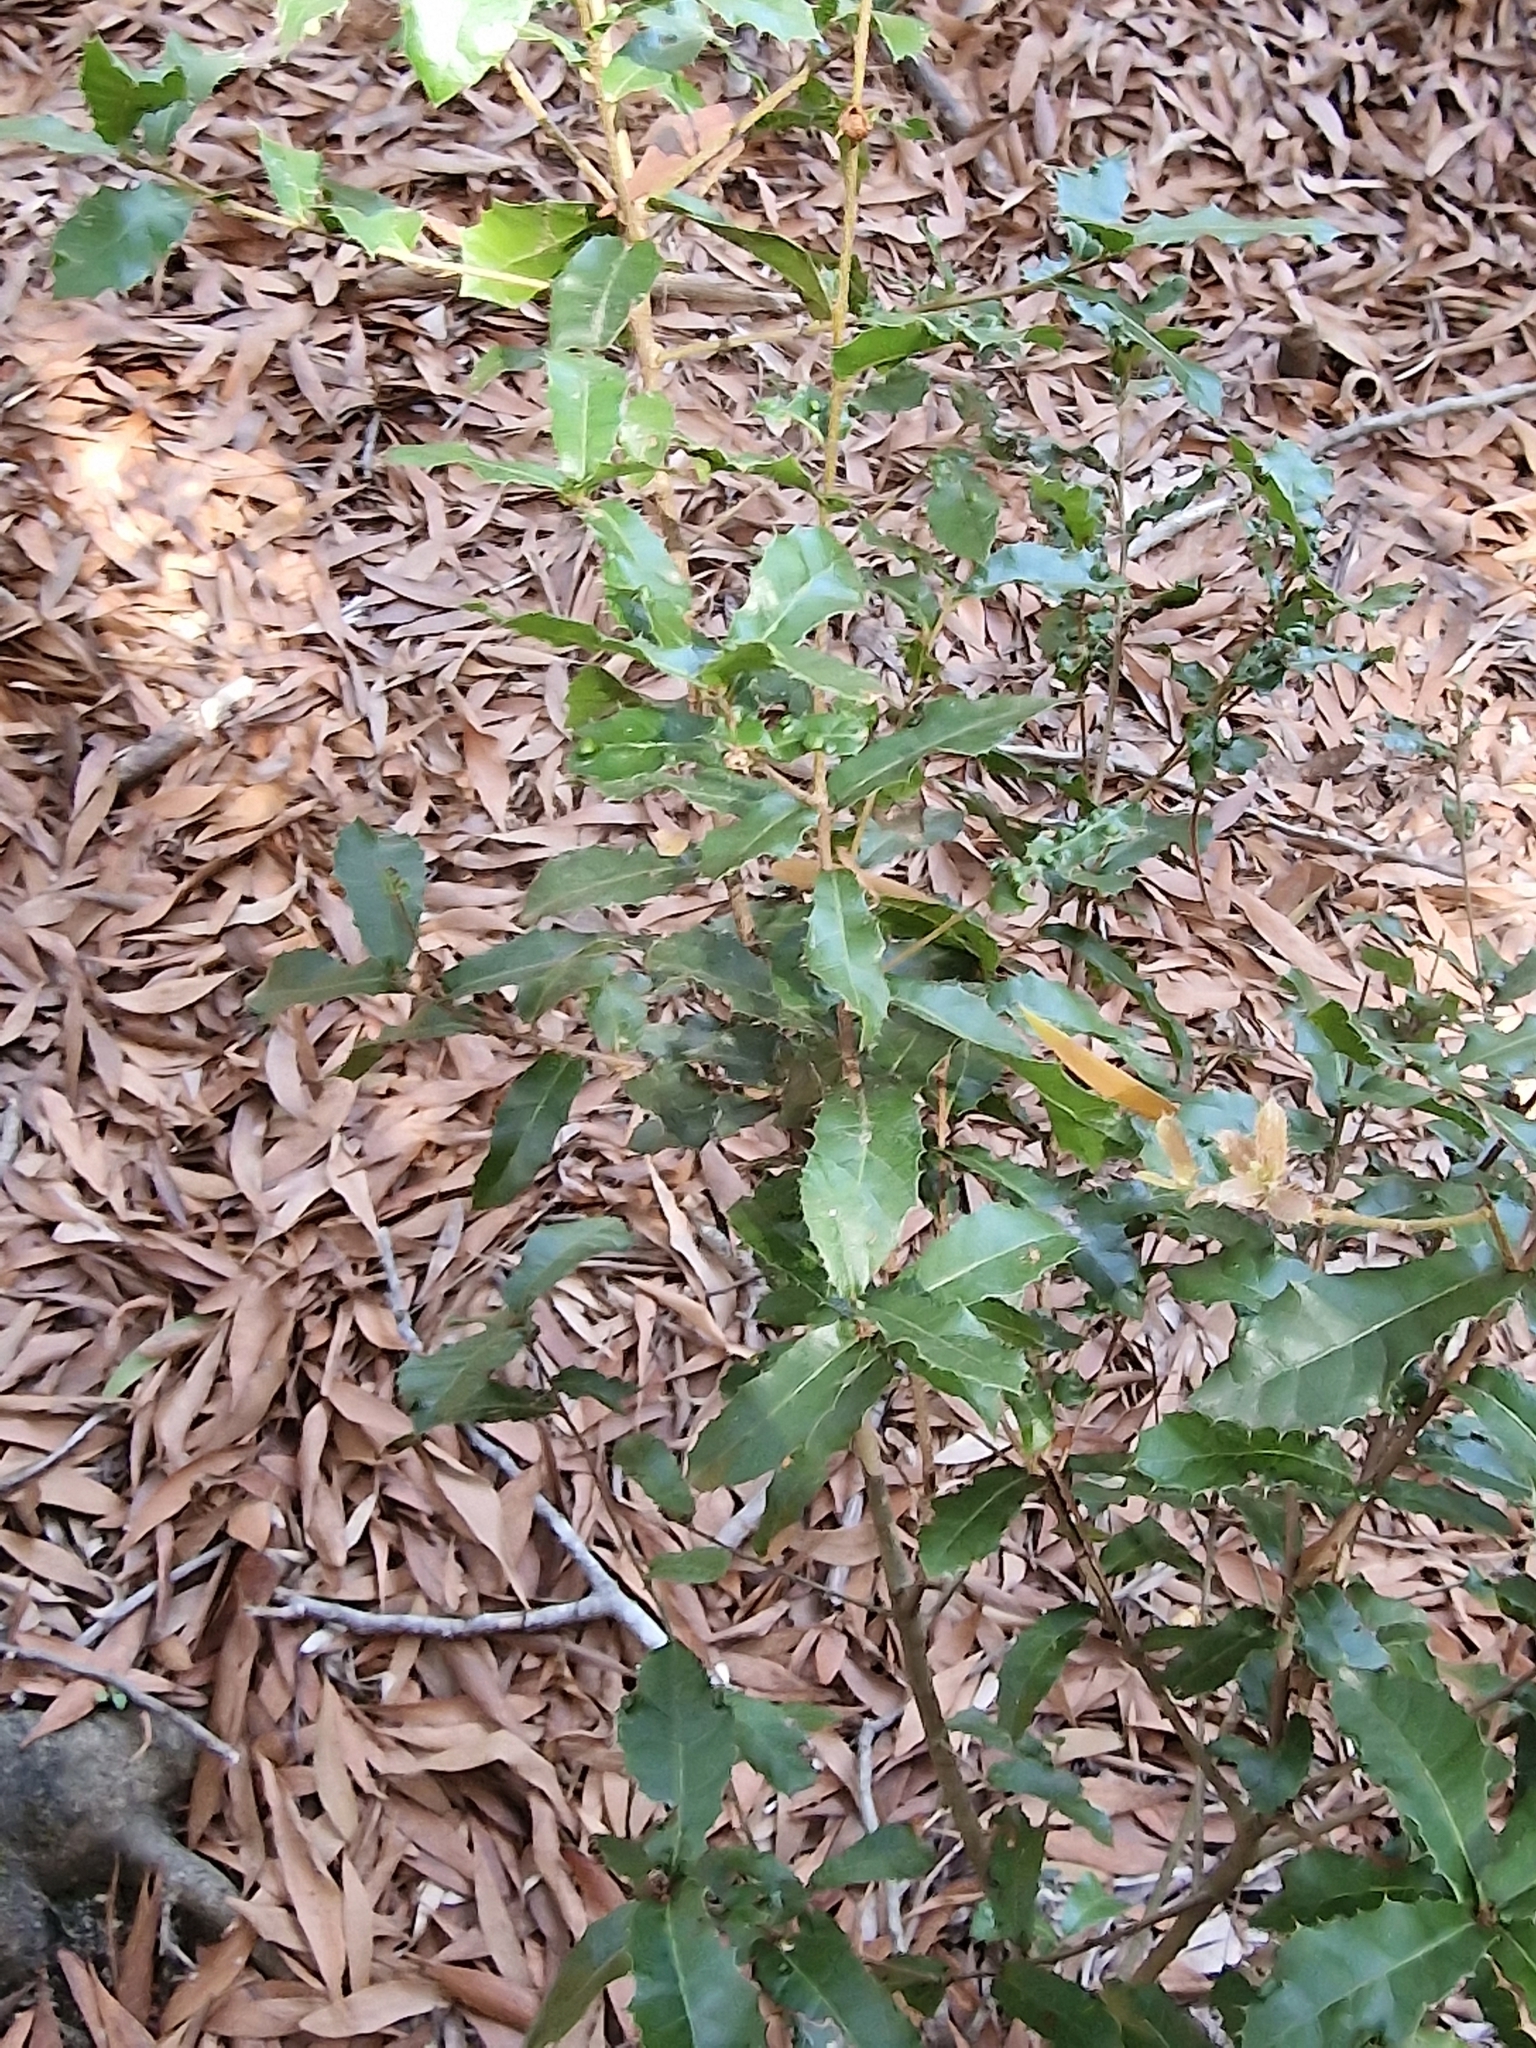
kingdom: Plantae
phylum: Tracheophyta
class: Magnoliopsida
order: Fagales
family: Fagaceae
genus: Quercus
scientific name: Quercus coccifera
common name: Kermes oak
